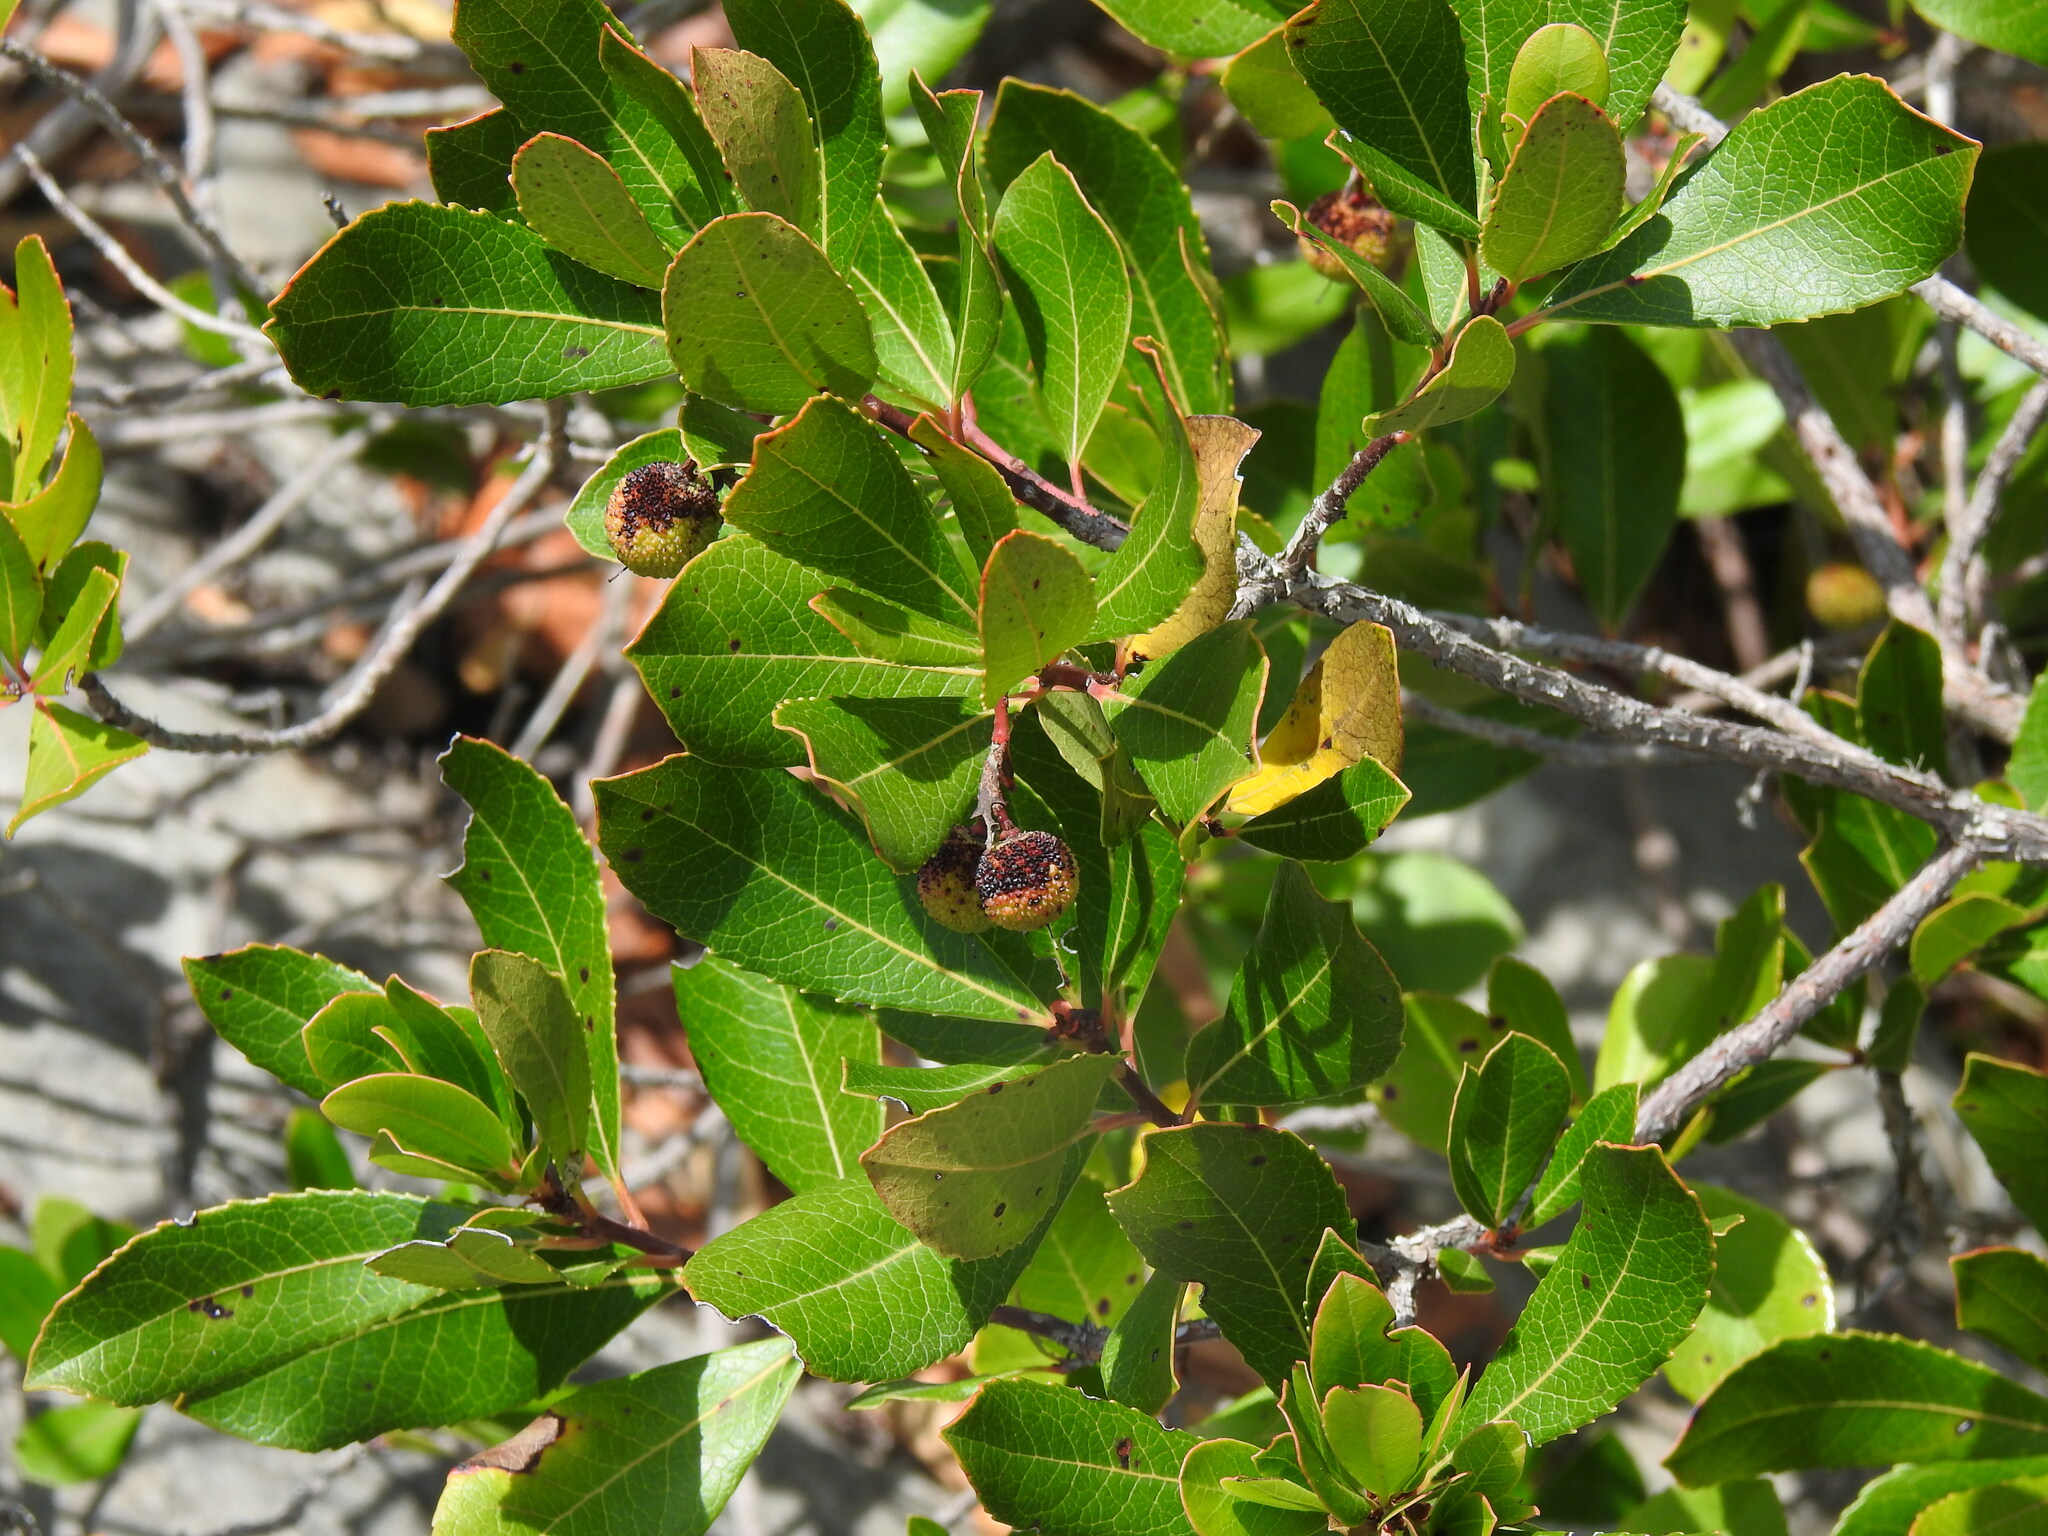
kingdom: Plantae
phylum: Tracheophyta
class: Magnoliopsida
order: Ericales
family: Ericaceae
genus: Arbutus
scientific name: Arbutus unedo
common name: Strawberry-tree
